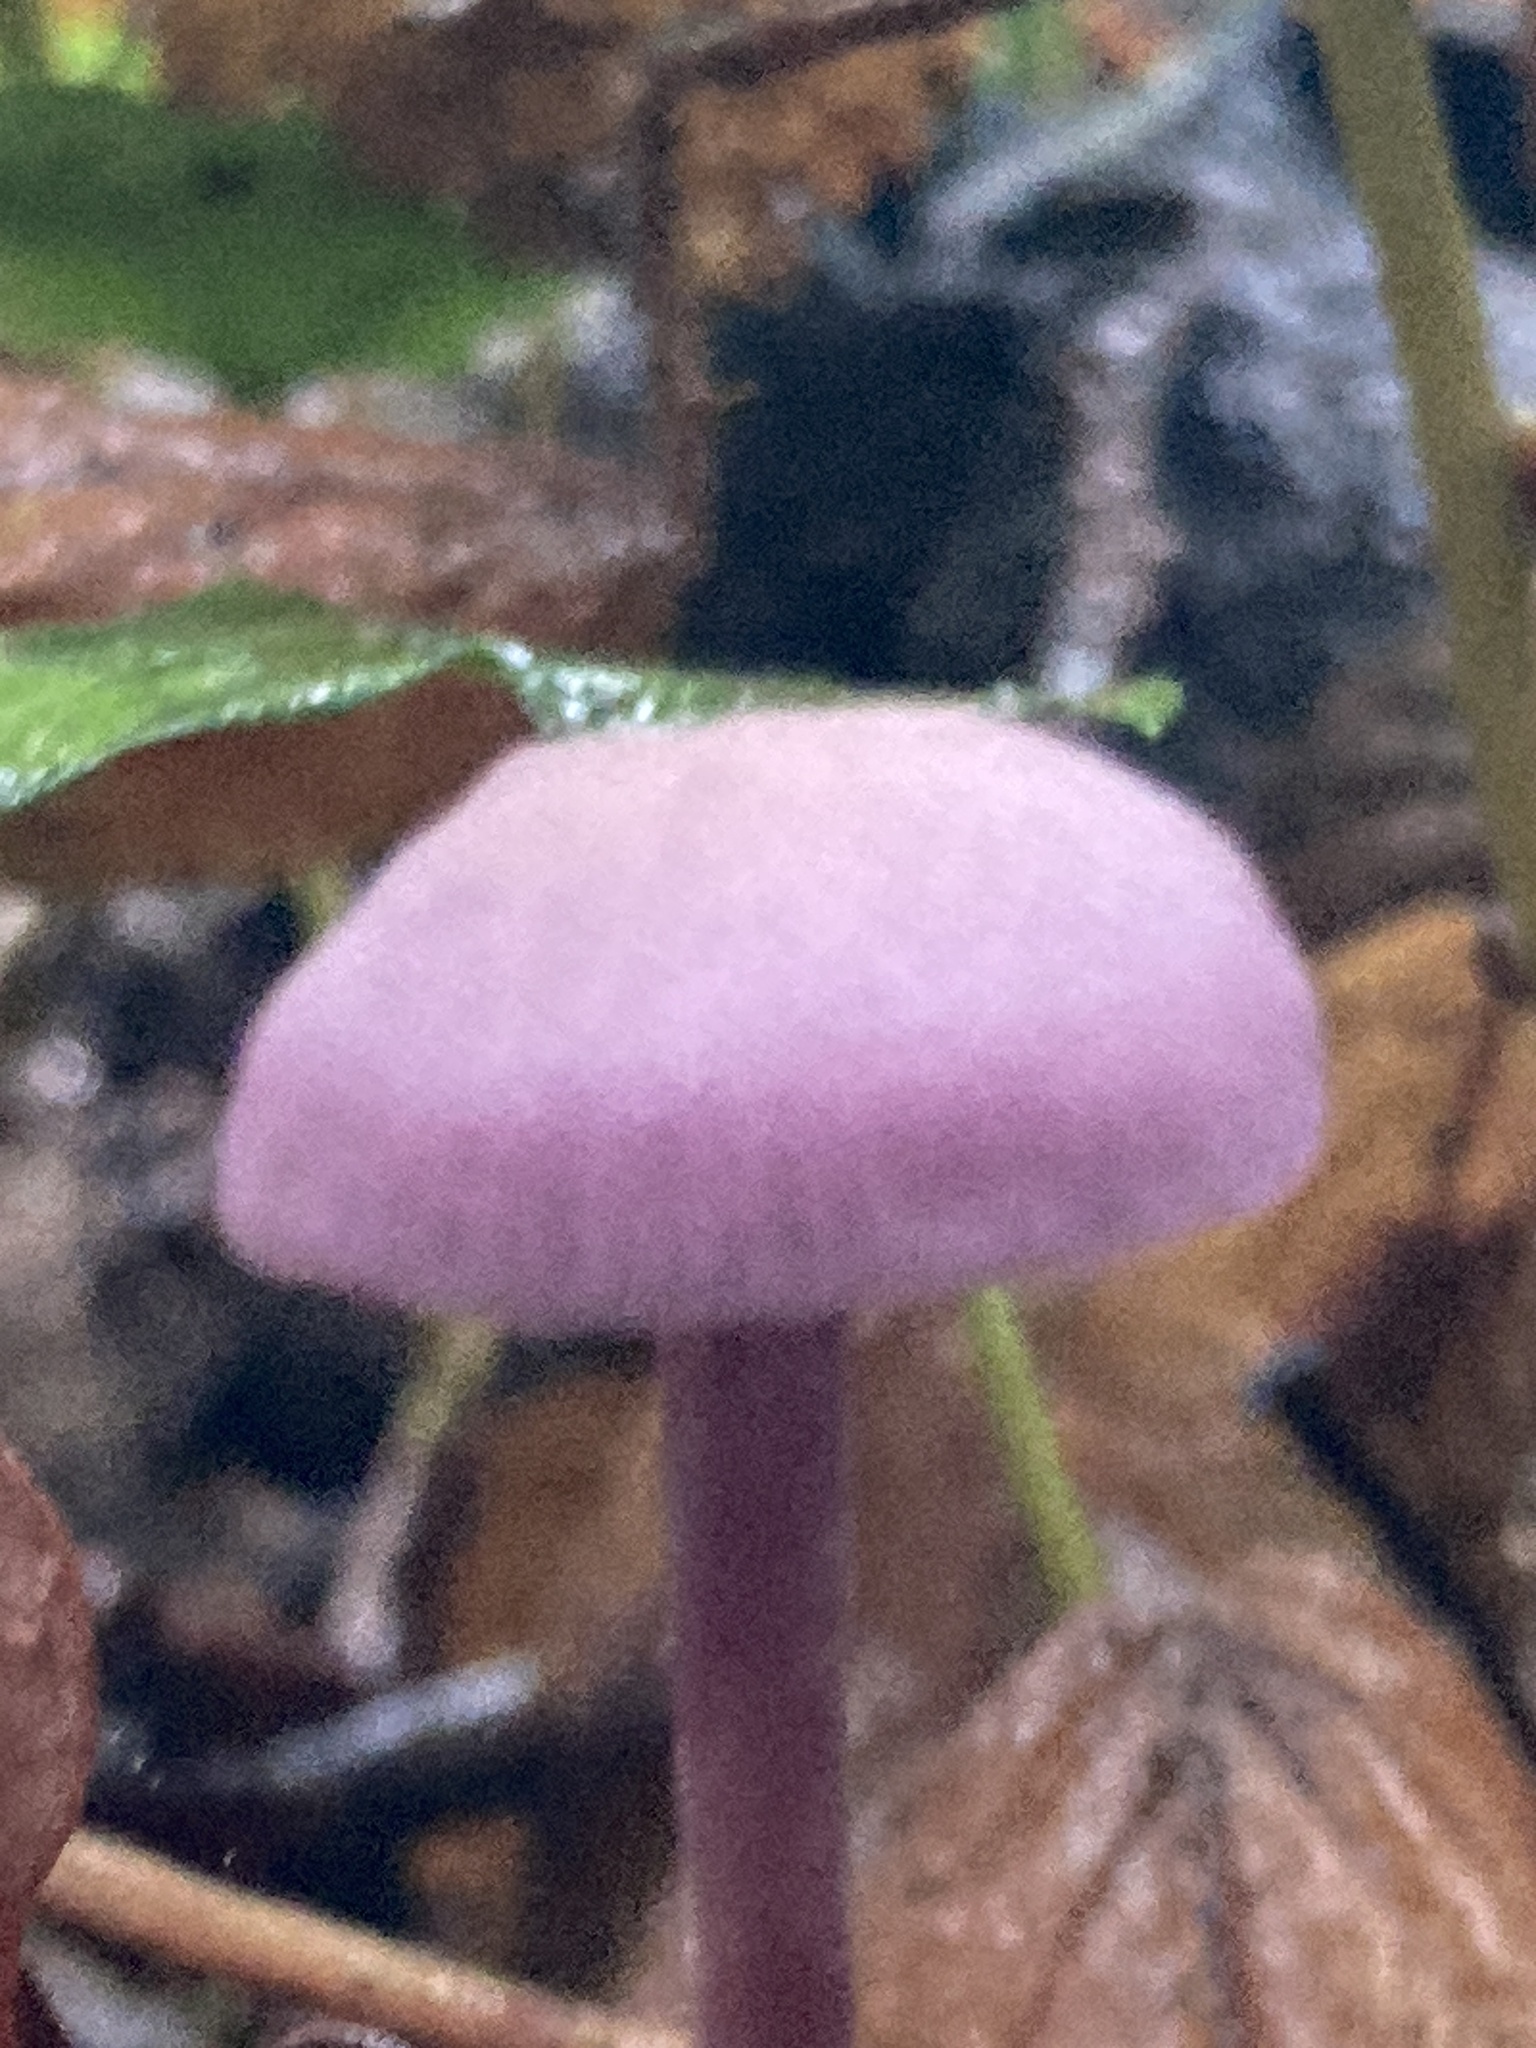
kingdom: Fungi
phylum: Basidiomycota
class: Agaricomycetes
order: Agaricales
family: Hydnangiaceae
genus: Laccaria
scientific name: Laccaria amethystina
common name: Amethyst deceiver
